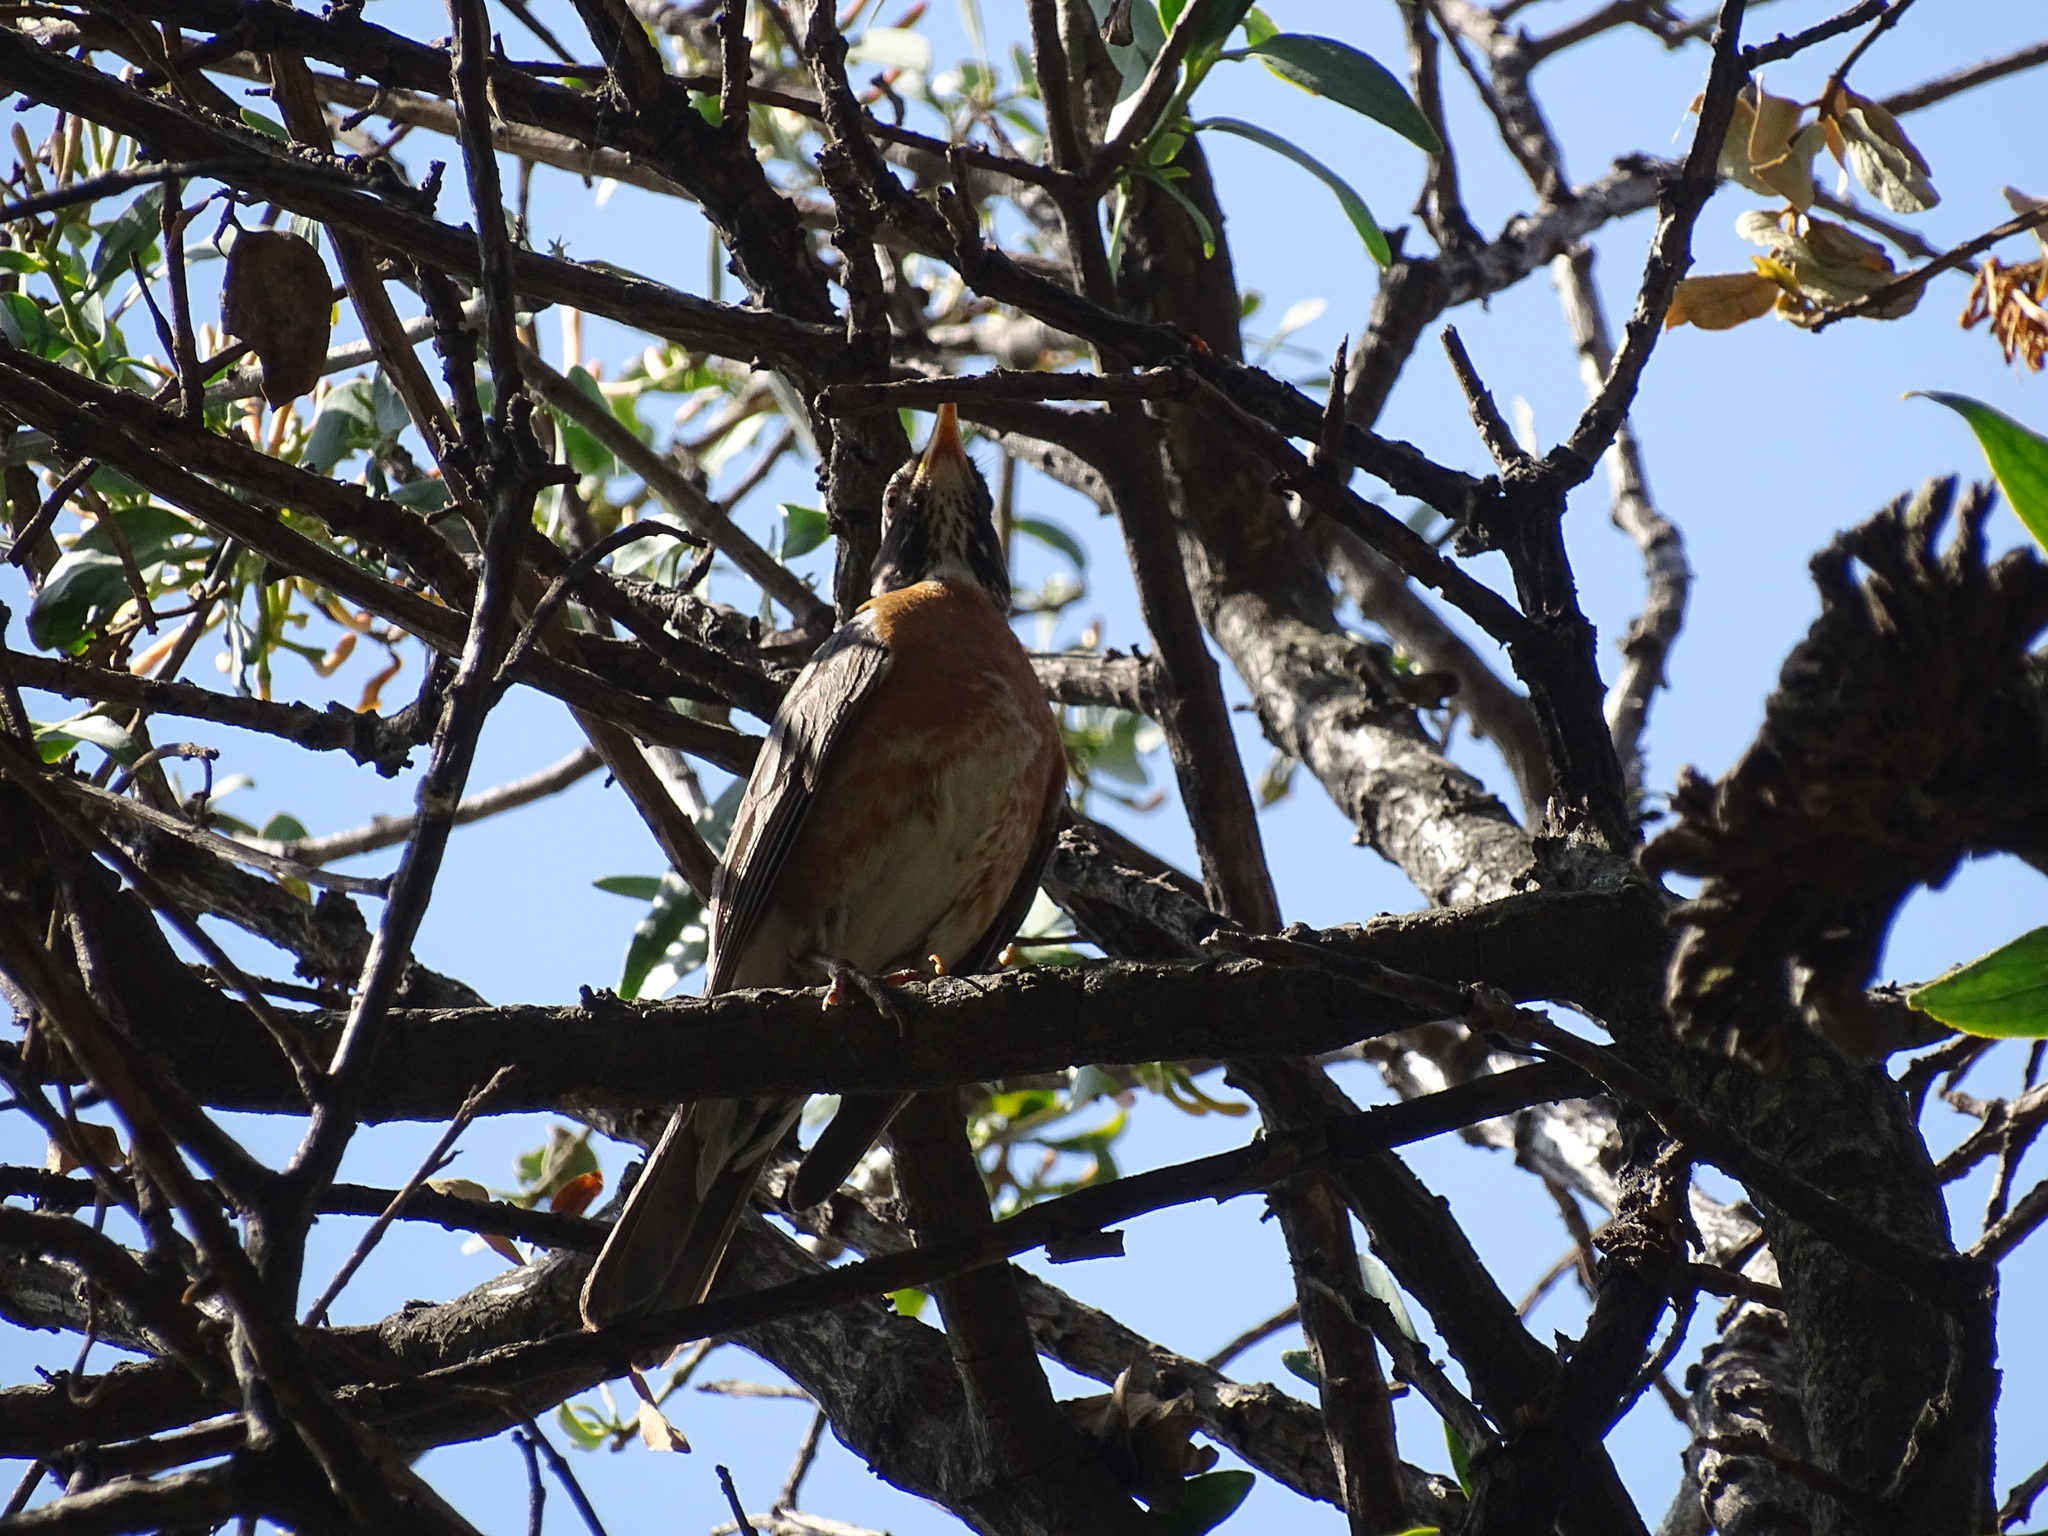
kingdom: Animalia
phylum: Chordata
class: Aves
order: Passeriformes
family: Turdidae
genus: Turdus
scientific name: Turdus migratorius
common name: American robin
